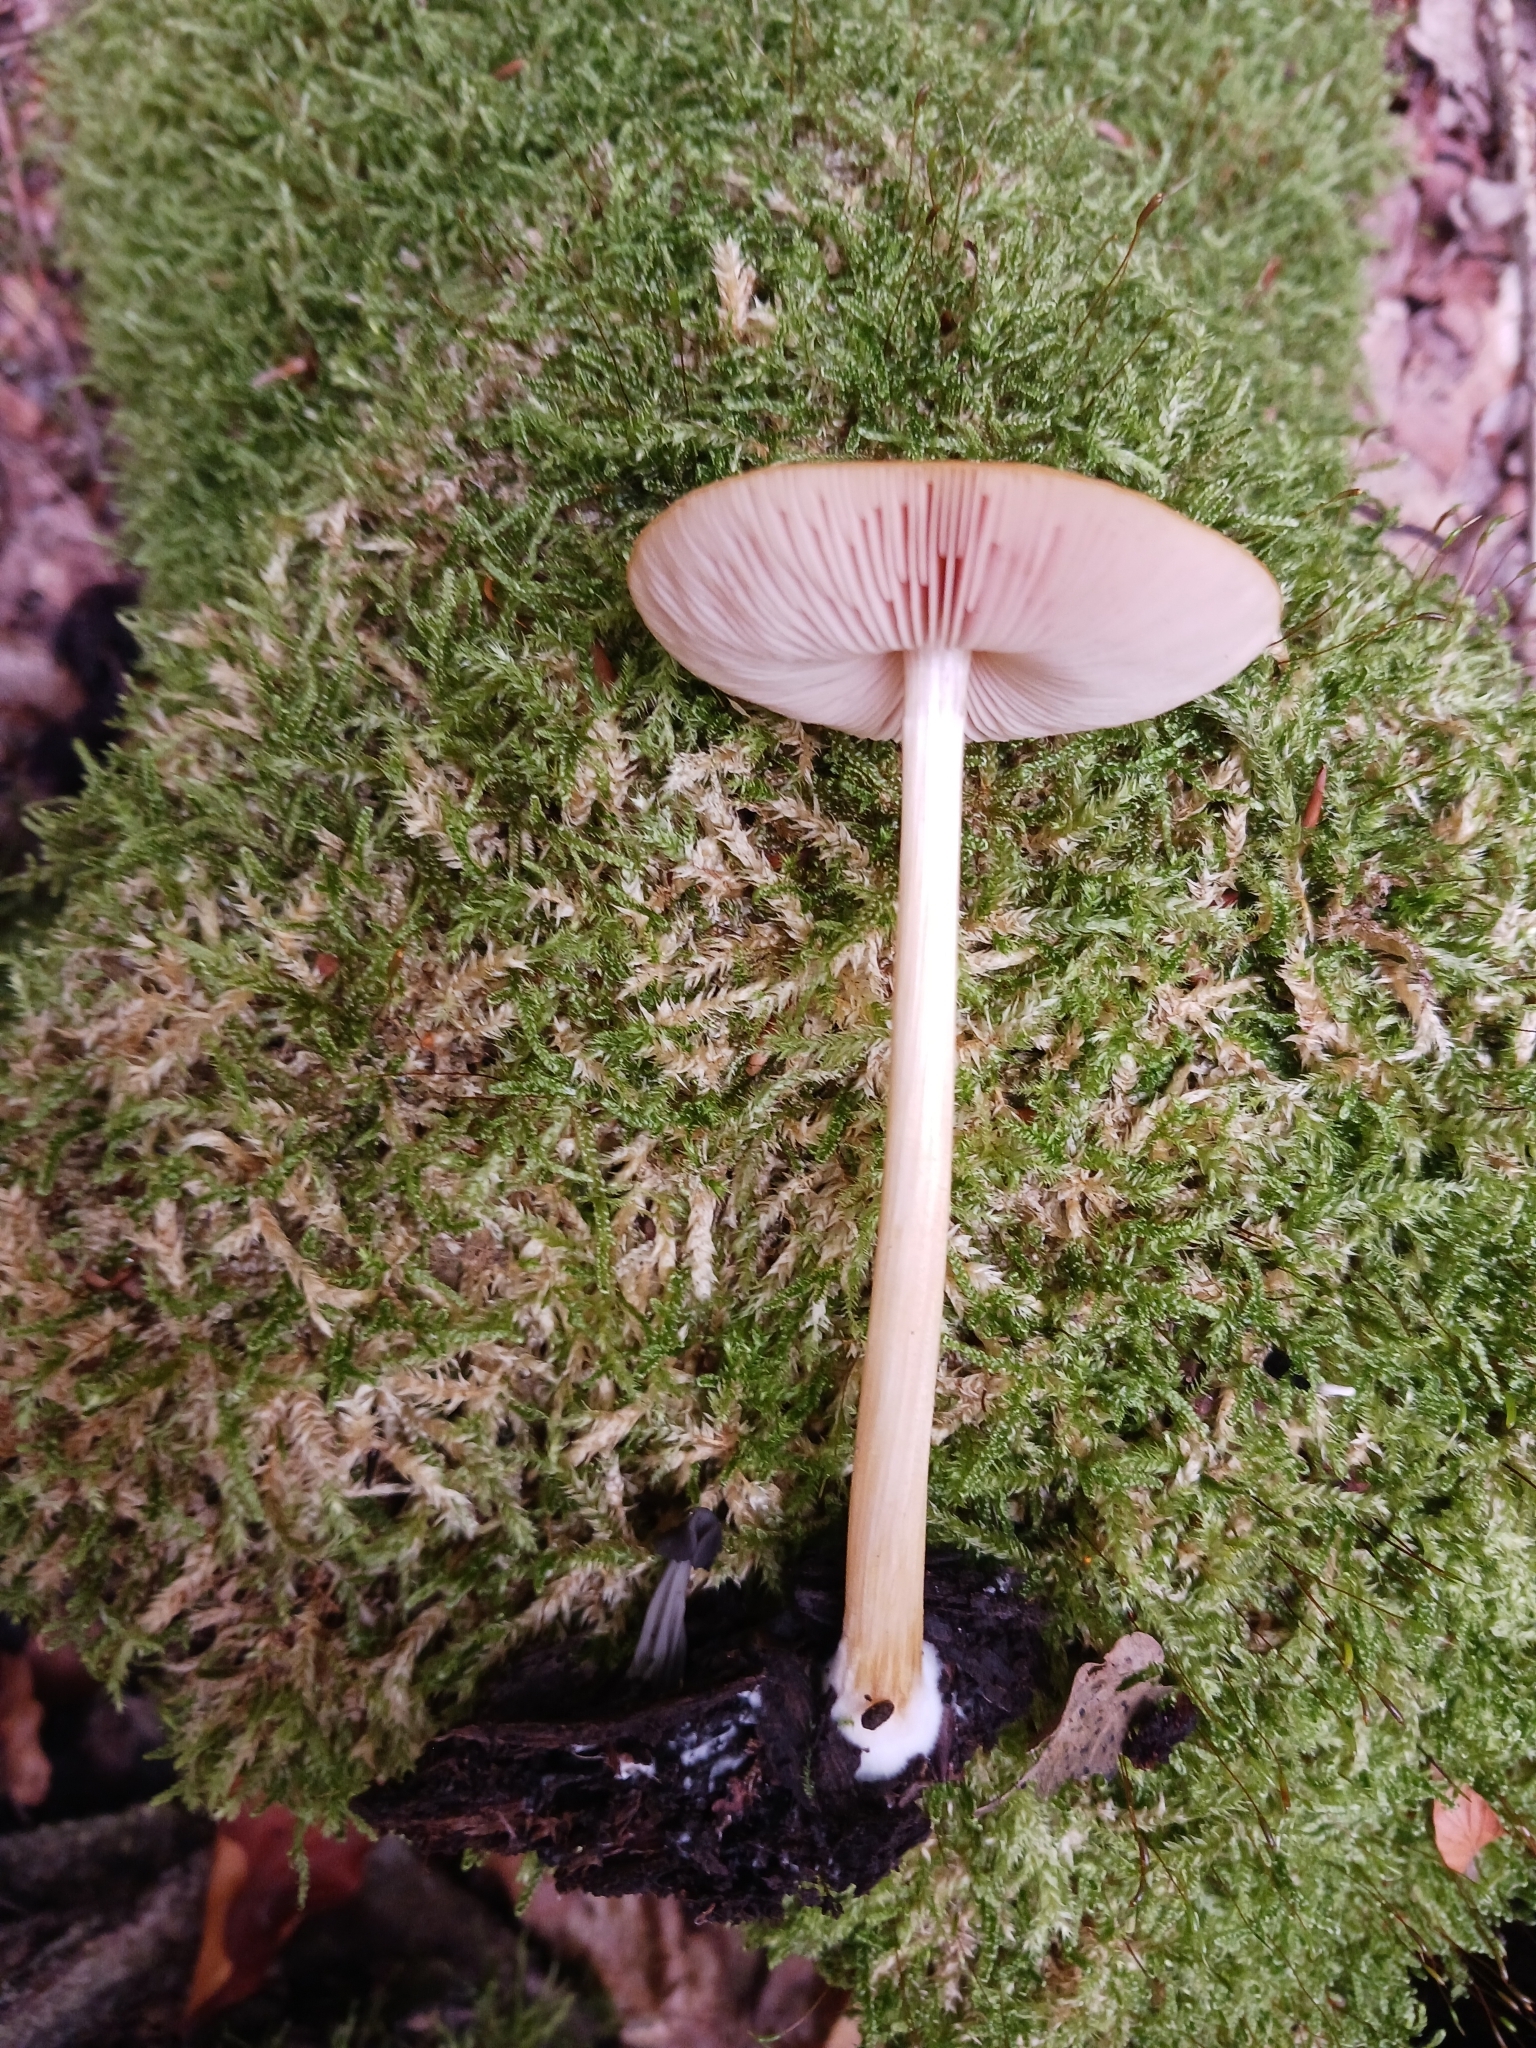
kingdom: Fungi
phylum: Basidiomycota
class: Agaricomycetes
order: Agaricales
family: Pluteaceae
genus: Pluteus
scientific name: Pluteus leoninus
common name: Lion shield
